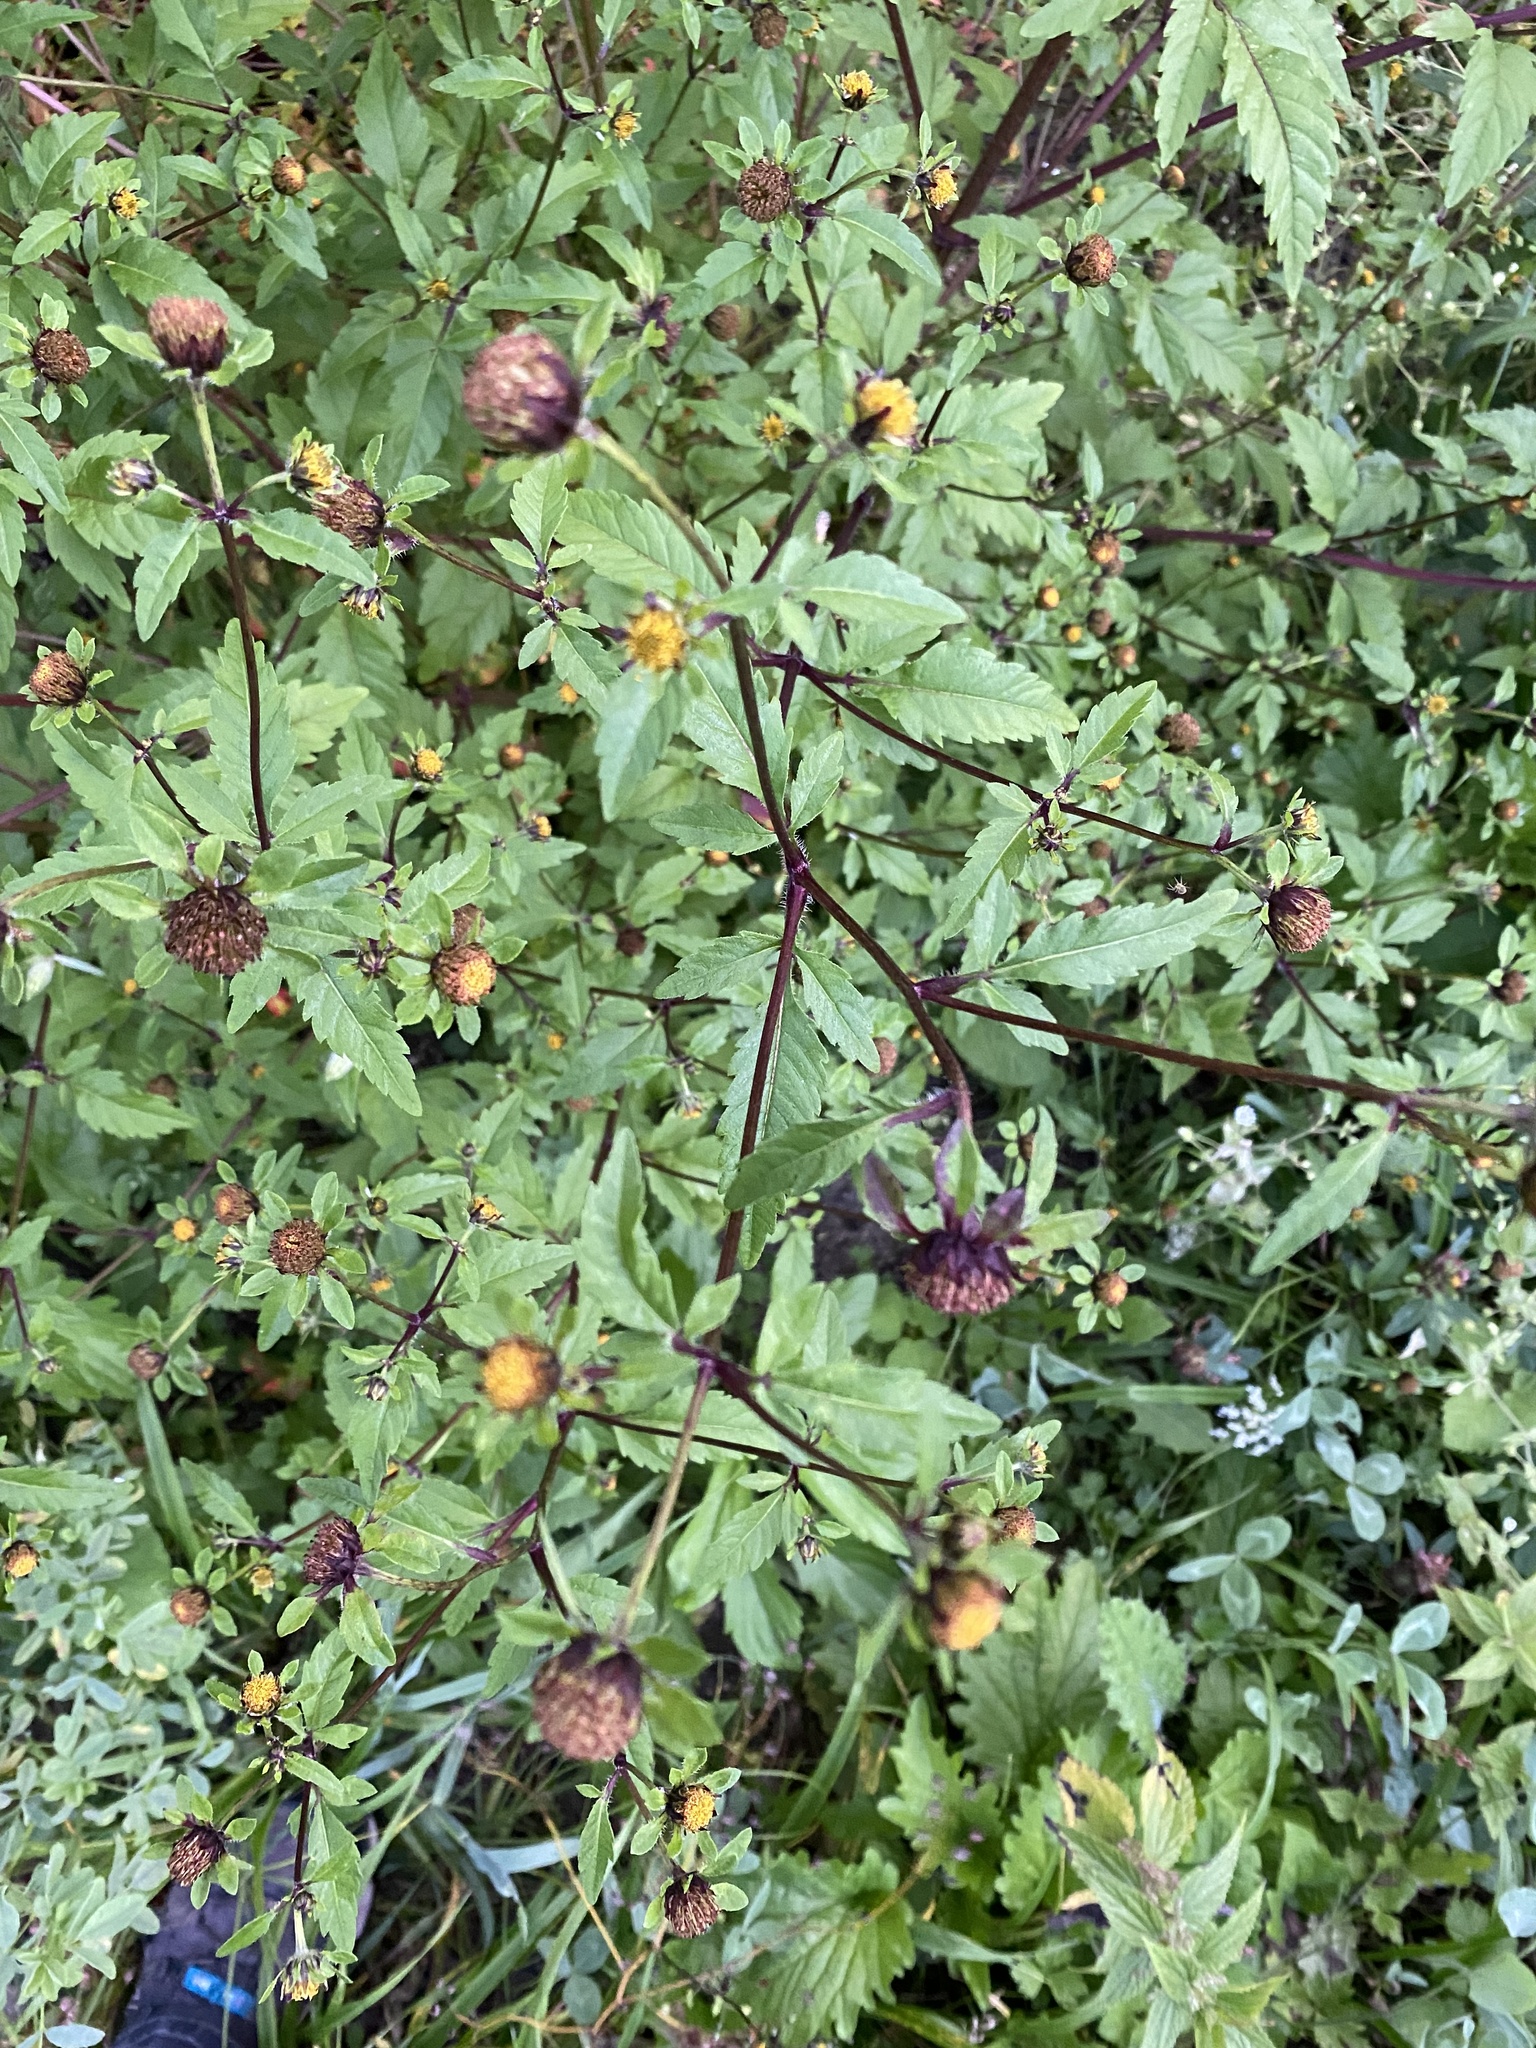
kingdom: Plantae
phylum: Tracheophyta
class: Magnoliopsida
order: Asterales
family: Asteraceae
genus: Bidens
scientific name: Bidens frondosa
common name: Beggarticks
